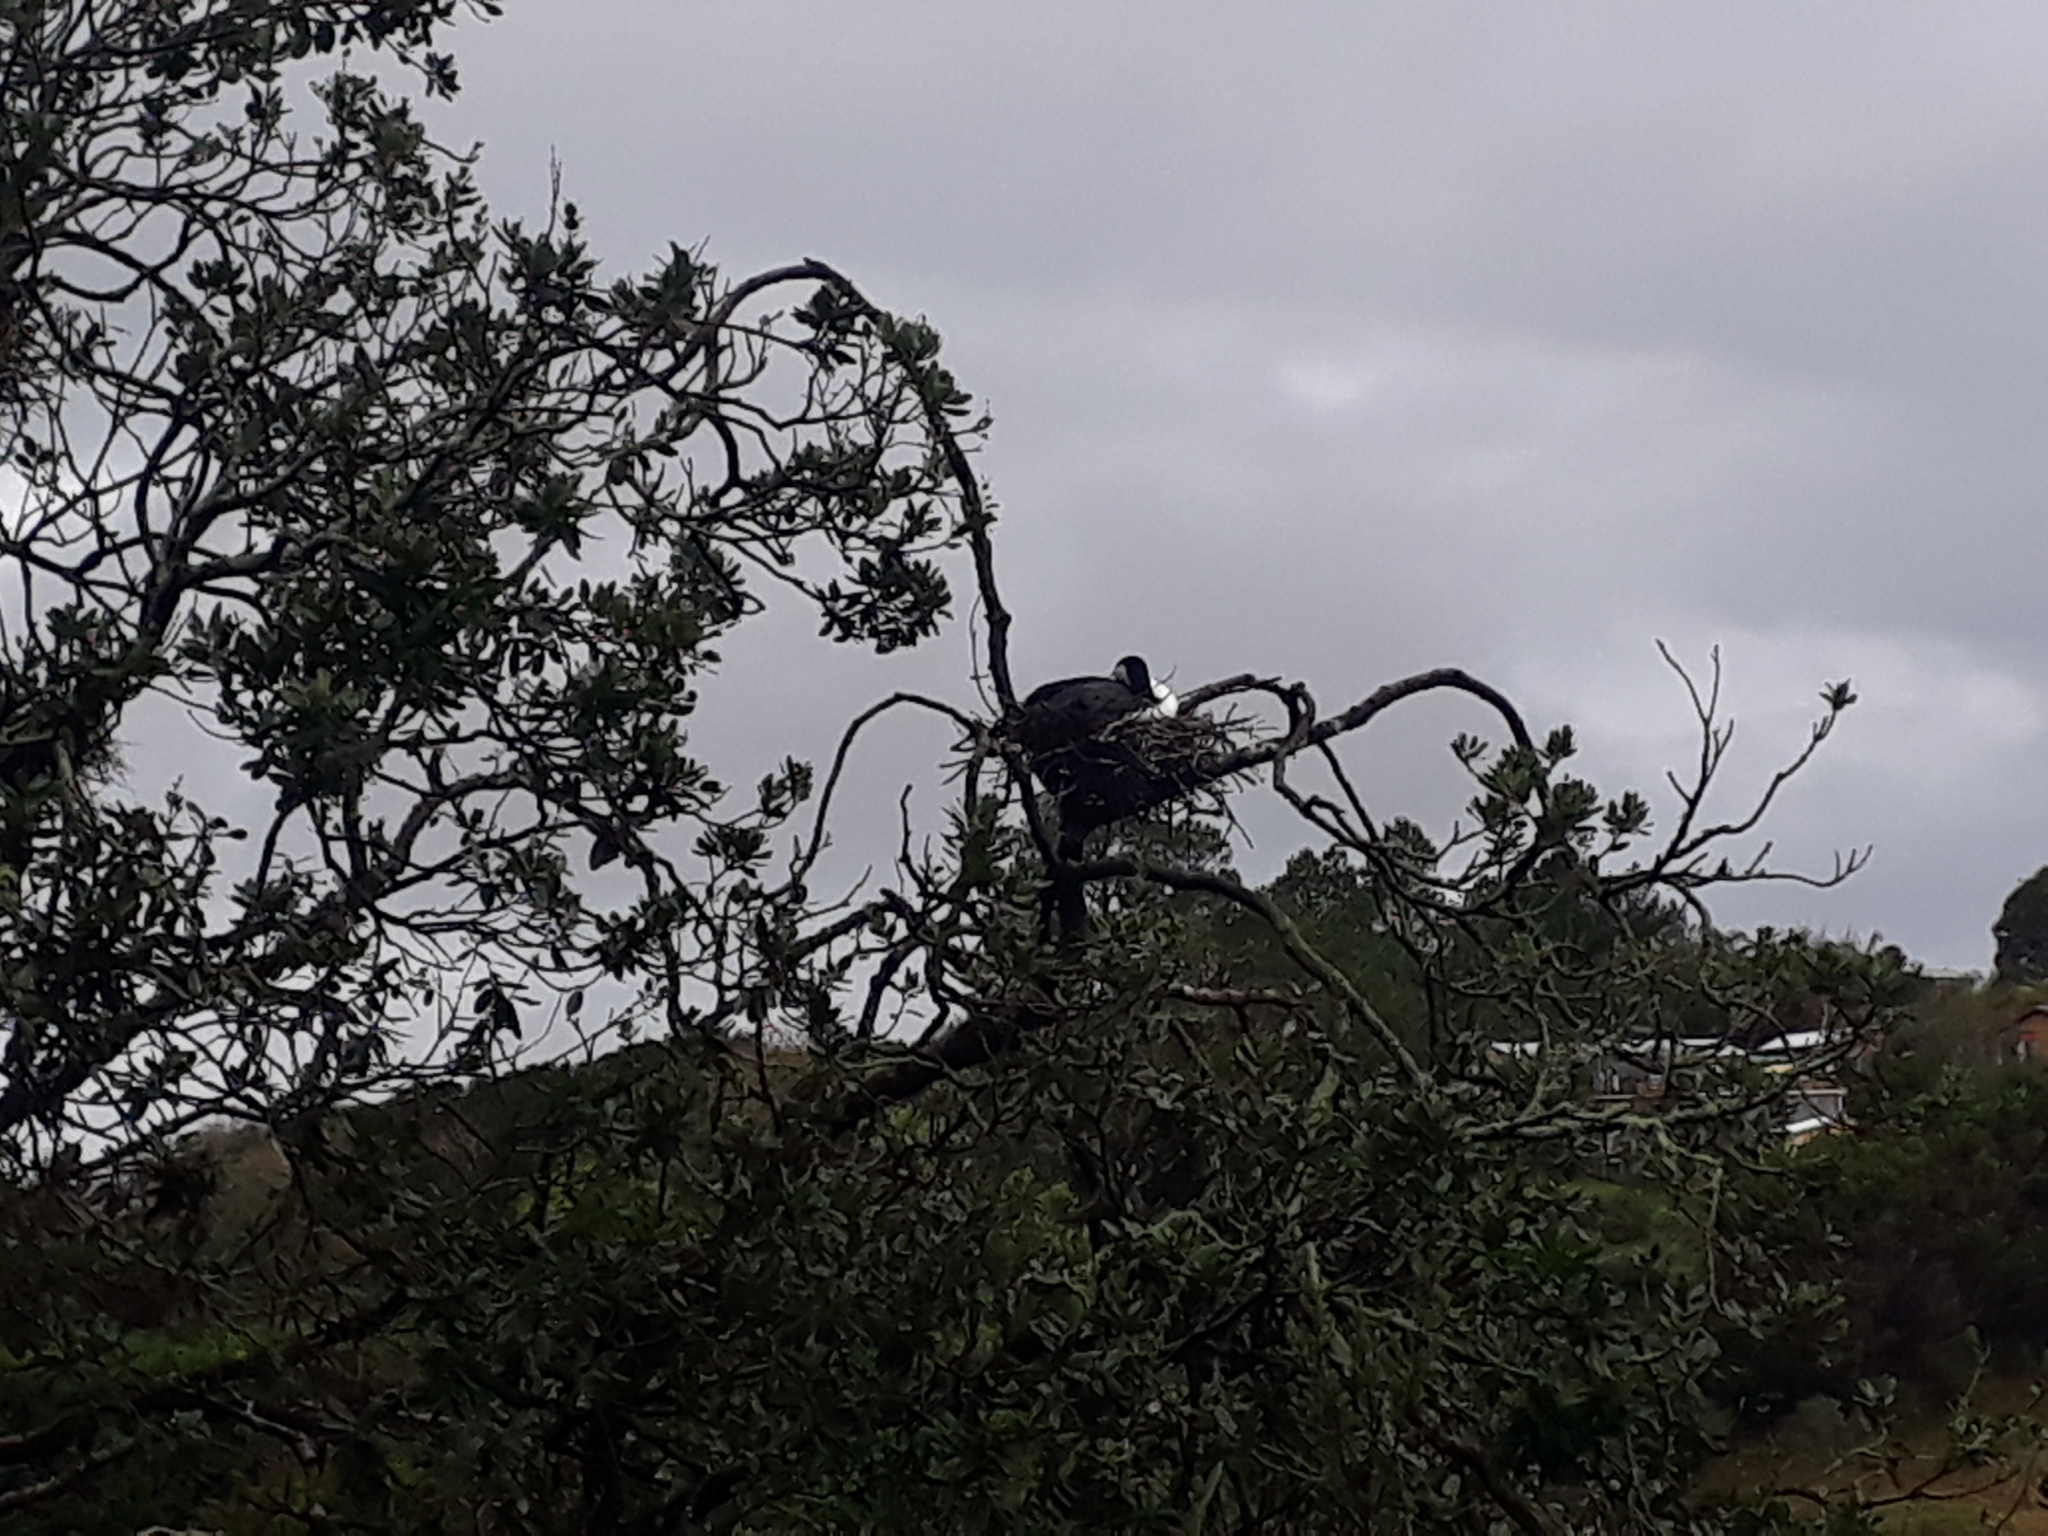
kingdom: Animalia
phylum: Chordata
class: Aves
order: Suliformes
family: Phalacrocoracidae
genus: Phalacrocorax
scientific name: Phalacrocorax varius
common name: Pied cormorant
